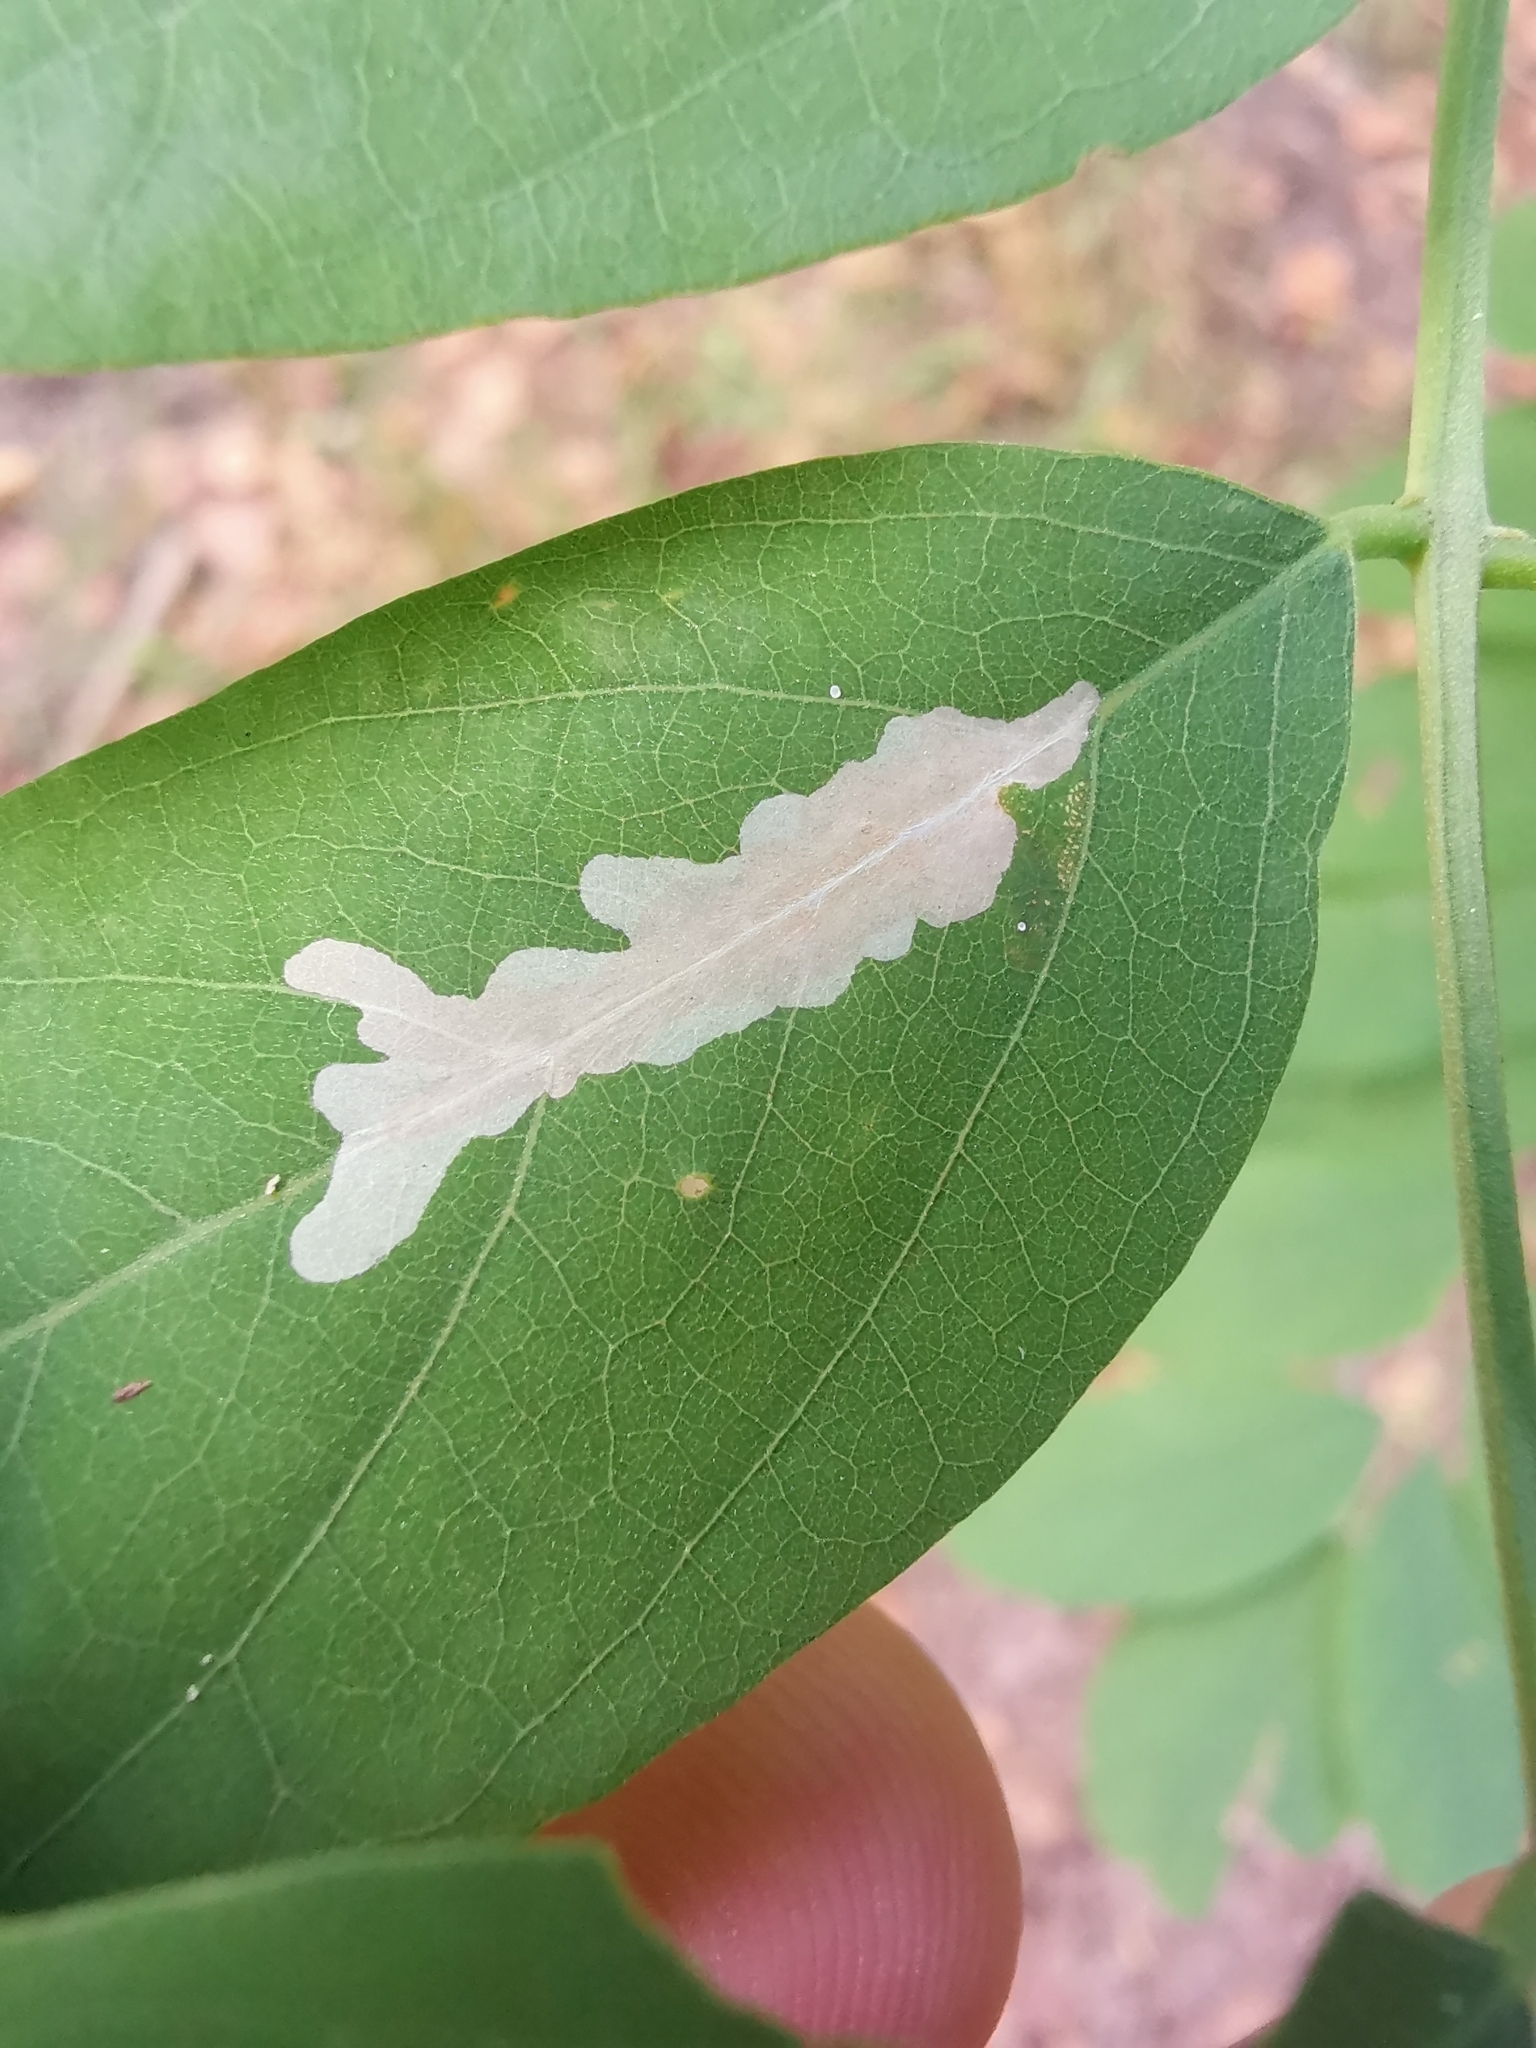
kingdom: Animalia
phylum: Arthropoda
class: Insecta
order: Lepidoptera
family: Gracillariidae
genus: Parectopa
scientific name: Parectopa robiniella
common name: Locust digitate leafminer
